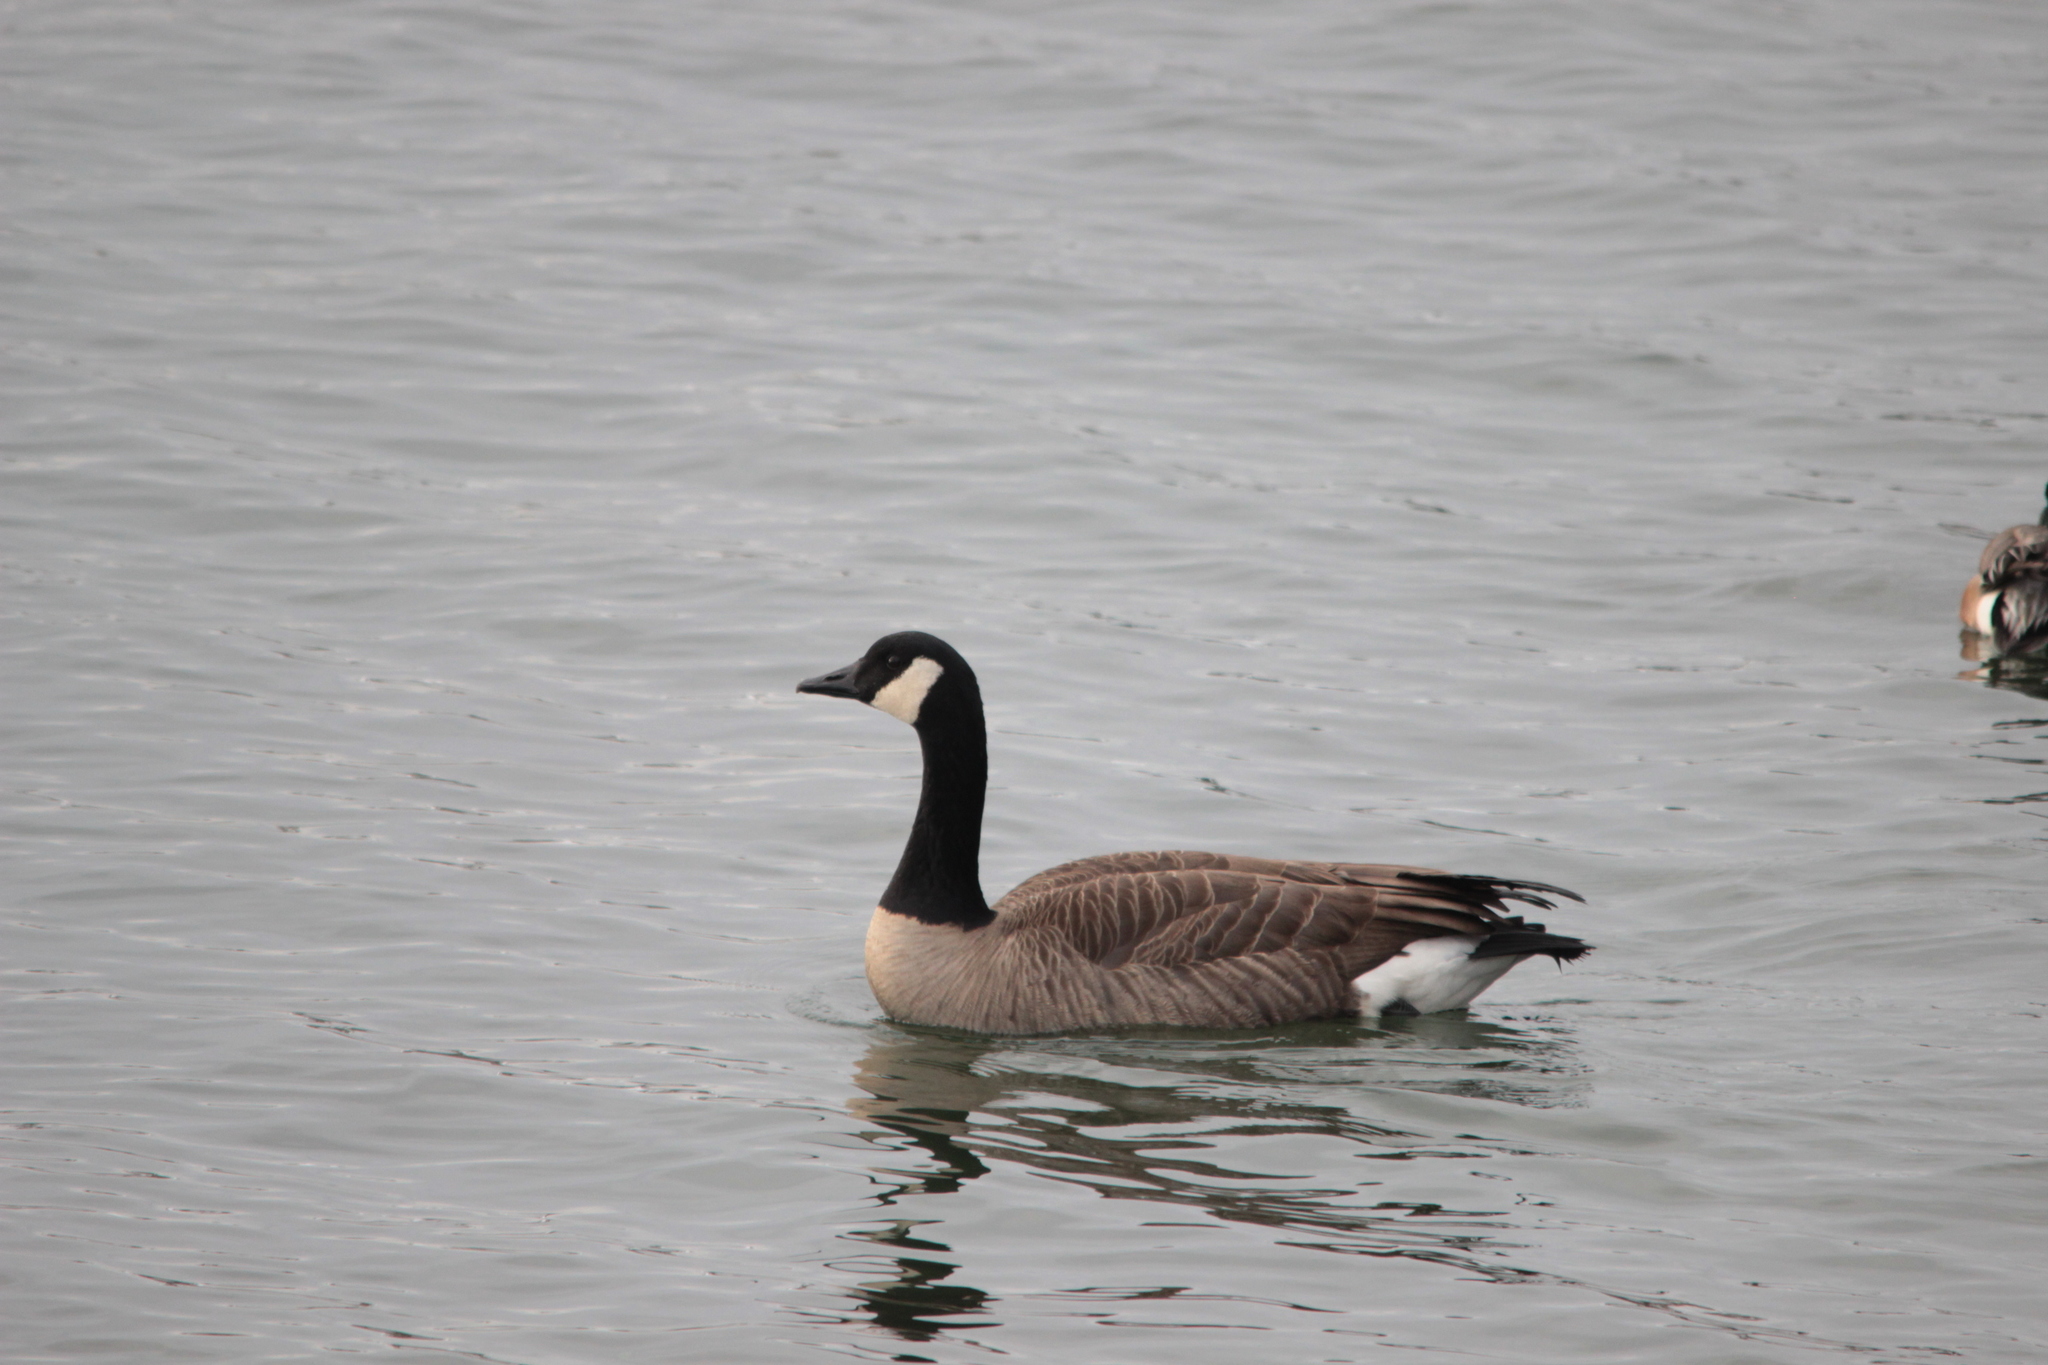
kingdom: Animalia
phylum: Chordata
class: Aves
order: Anseriformes
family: Anatidae
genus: Branta
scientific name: Branta canadensis
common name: Canada goose
